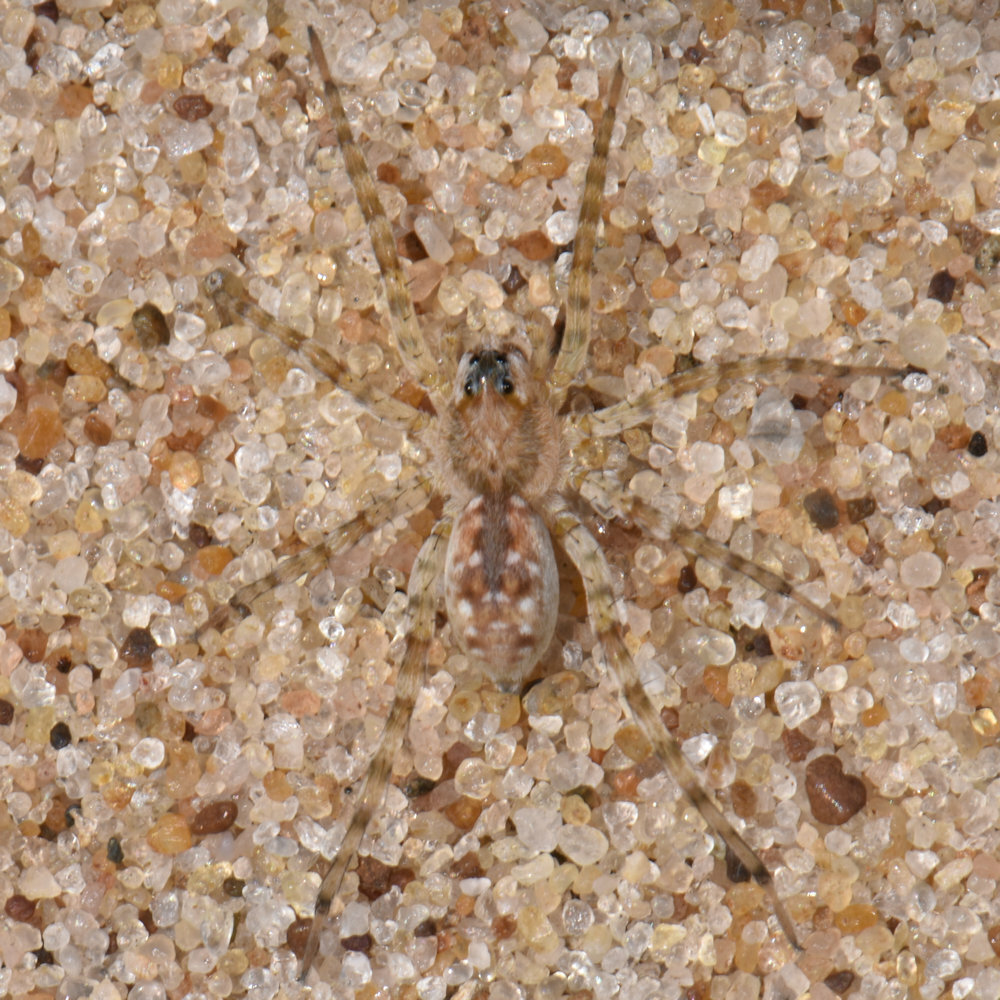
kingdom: Animalia
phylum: Arthropoda
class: Arachnida
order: Araneae
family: Lycosidae
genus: Arctosa
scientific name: Arctosa littoralis
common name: Wolf spiders
